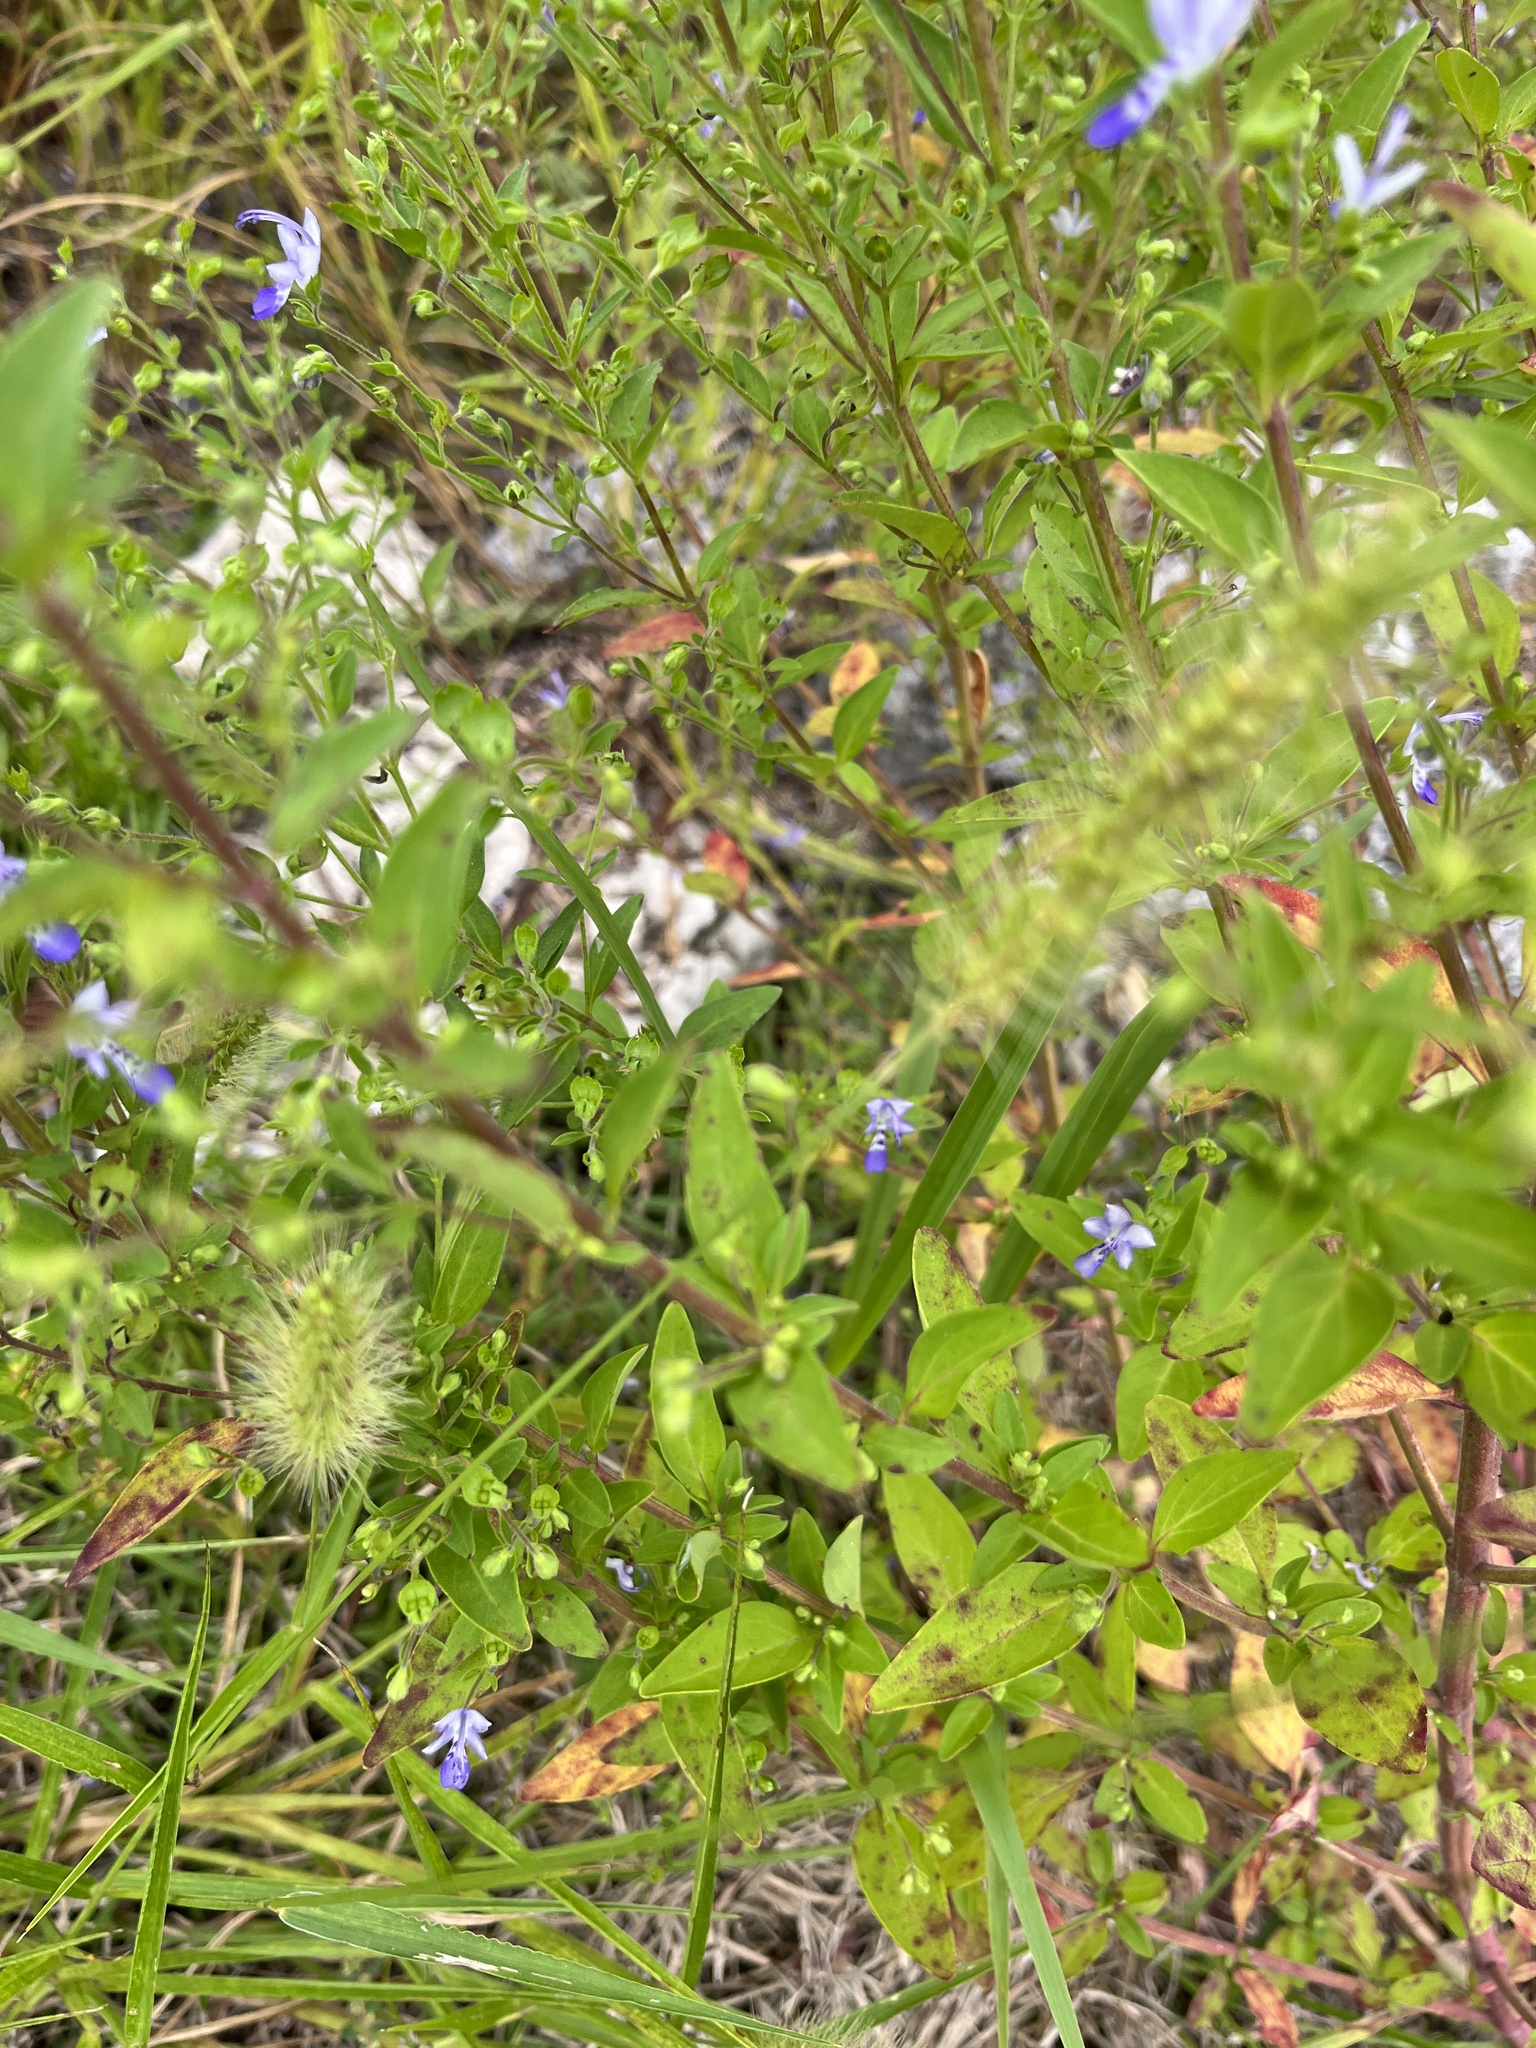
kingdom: Plantae
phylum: Tracheophyta
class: Magnoliopsida
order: Lamiales
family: Lamiaceae
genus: Trichostema
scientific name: Trichostema dichotomum
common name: Bastard pennyroyal
